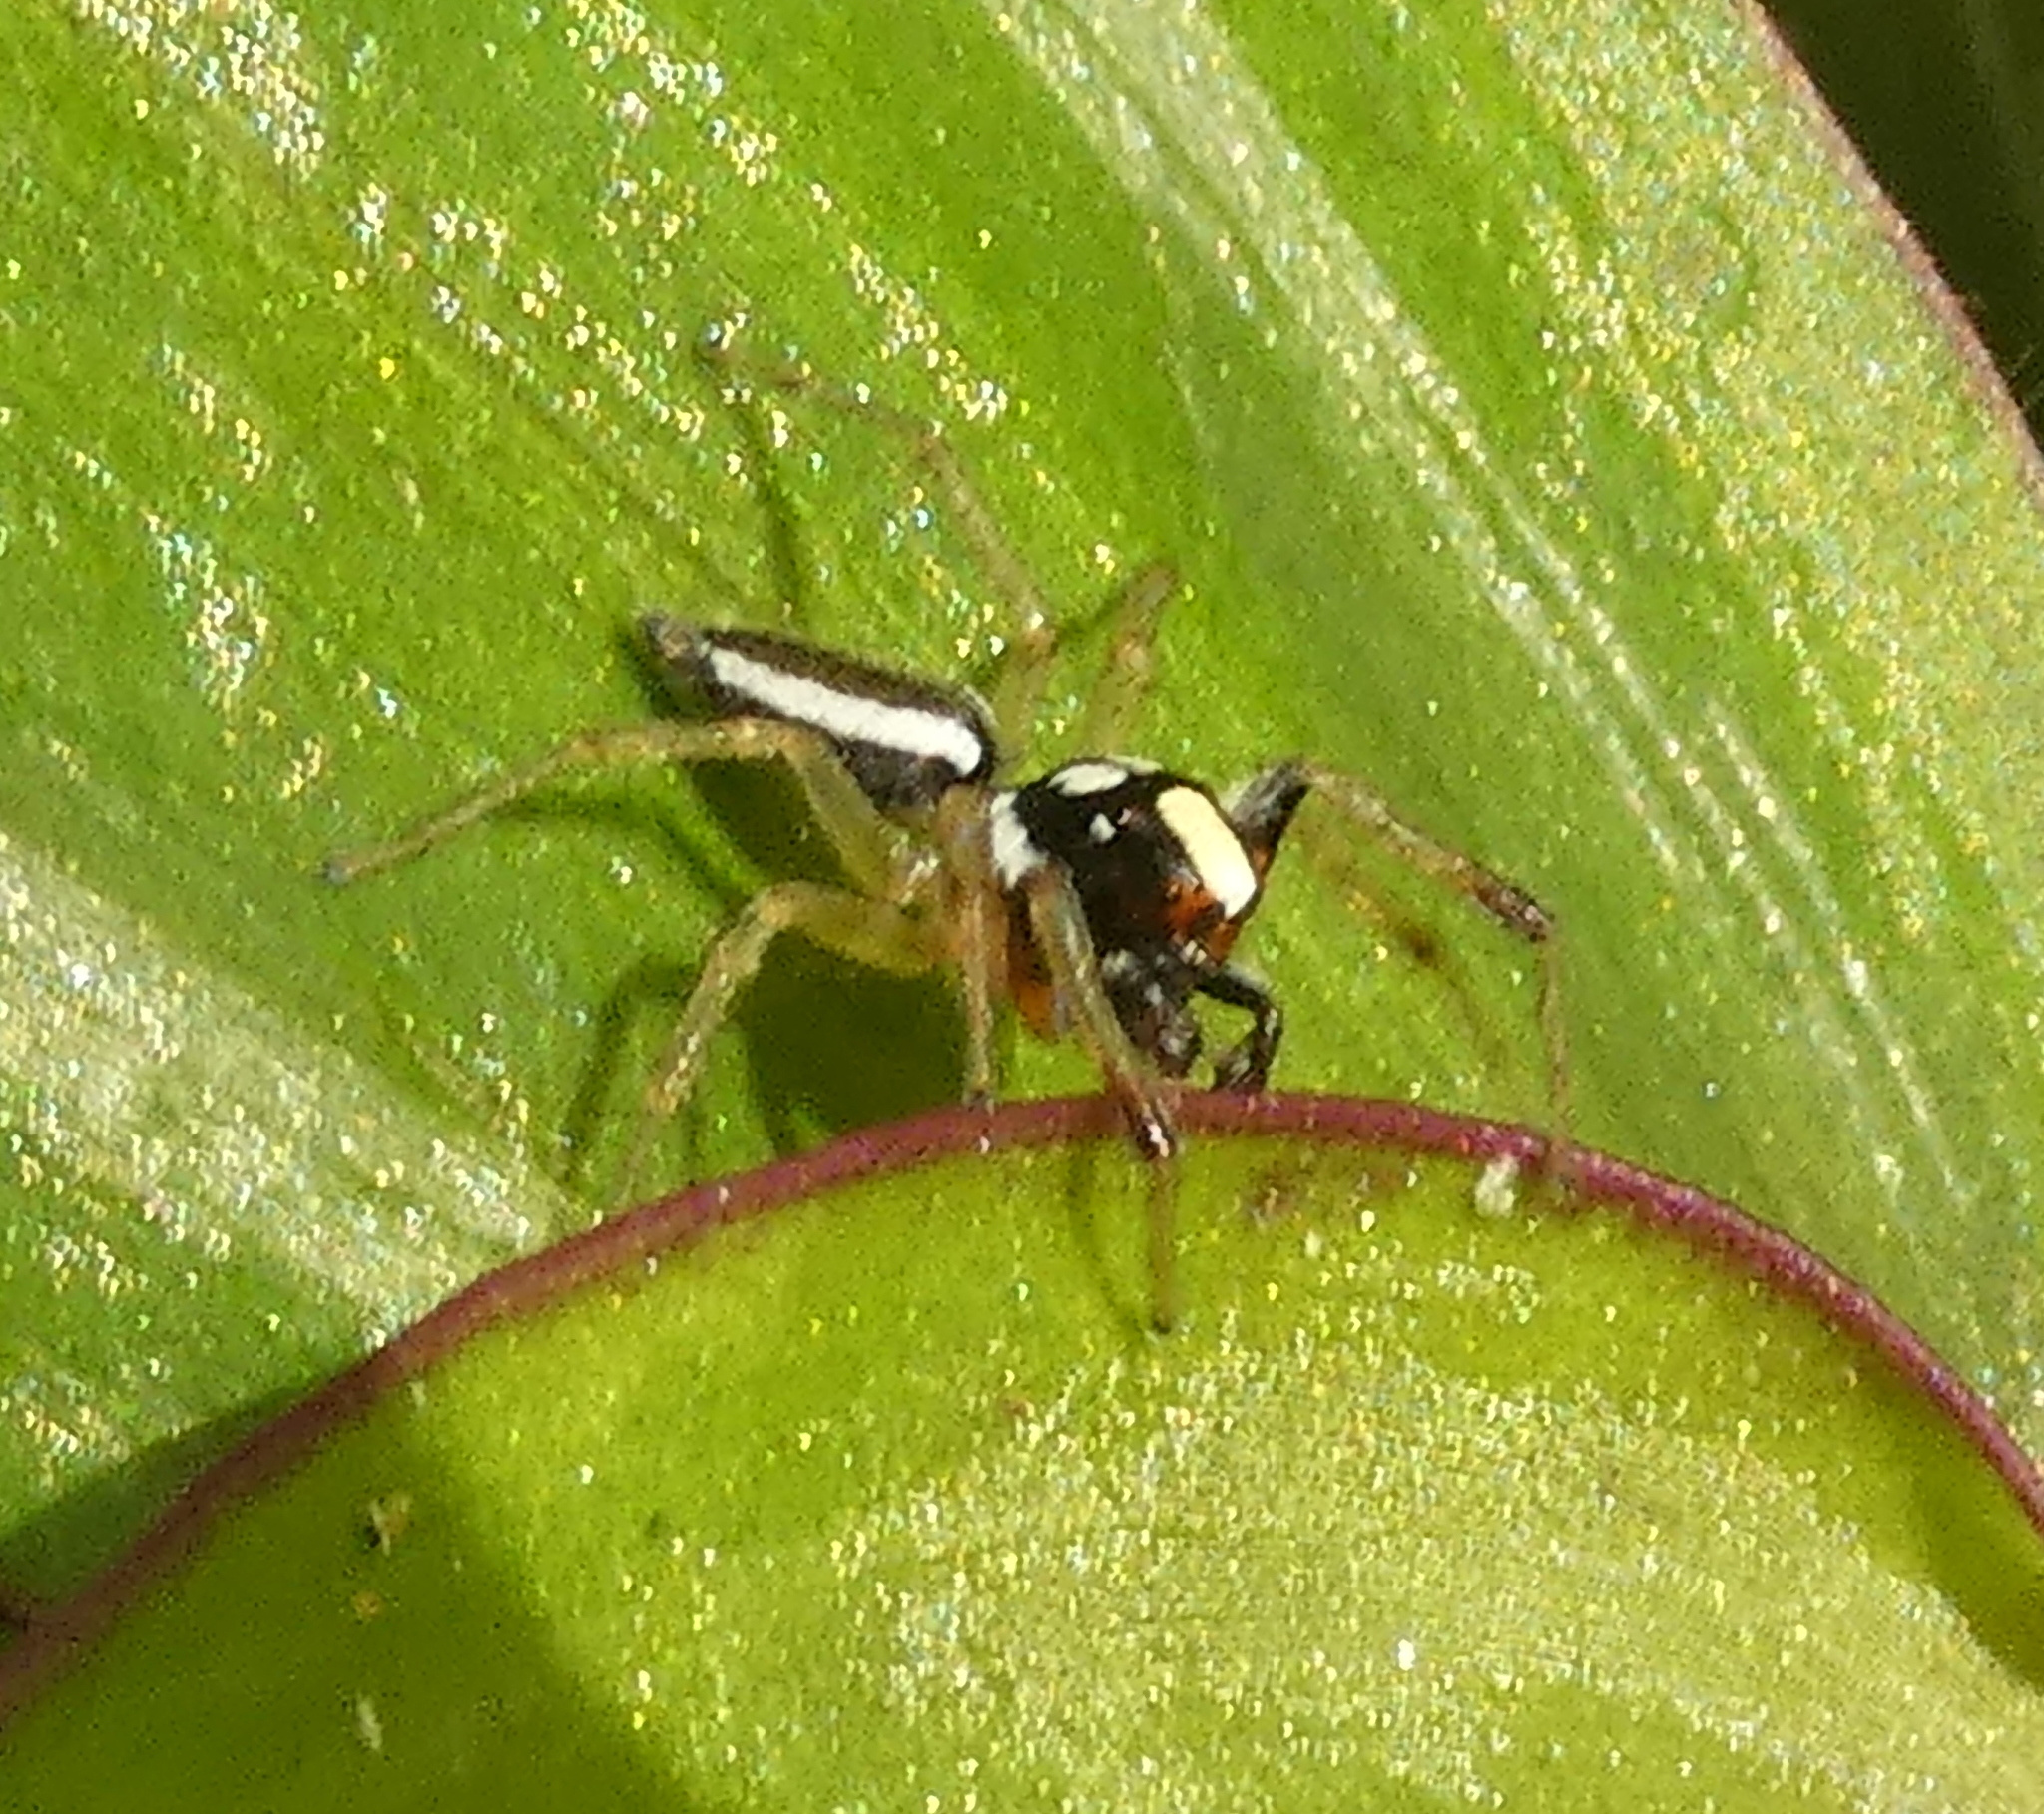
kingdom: Animalia
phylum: Arthropoda
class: Arachnida
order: Araneae
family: Salticidae
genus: Chira
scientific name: Chira spinosa
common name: Jumping spiders
